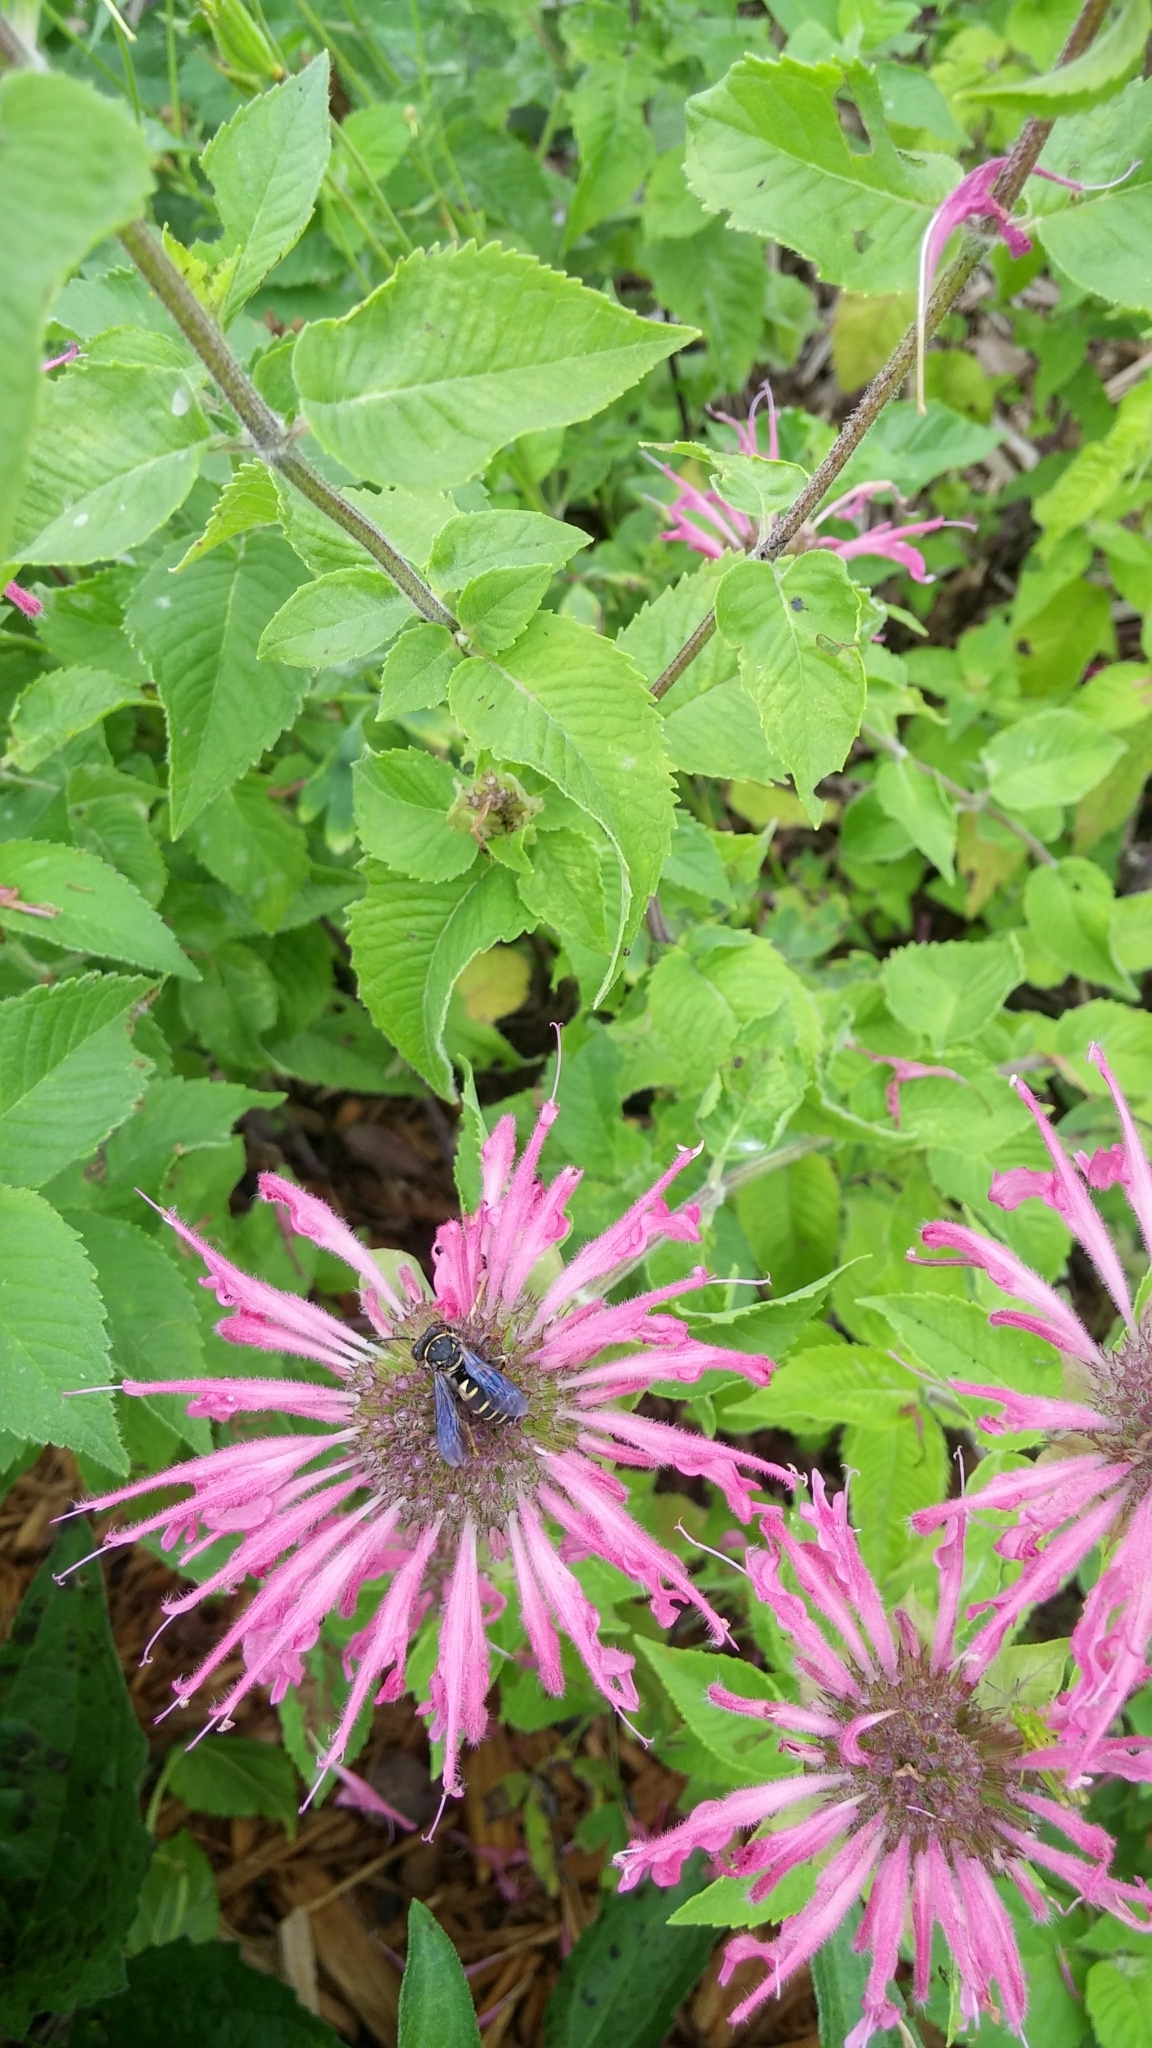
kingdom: Animalia
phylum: Arthropoda
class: Insecta
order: Hymenoptera
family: Apidae
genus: Triepeolus
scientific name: Triepeolus lunatus
